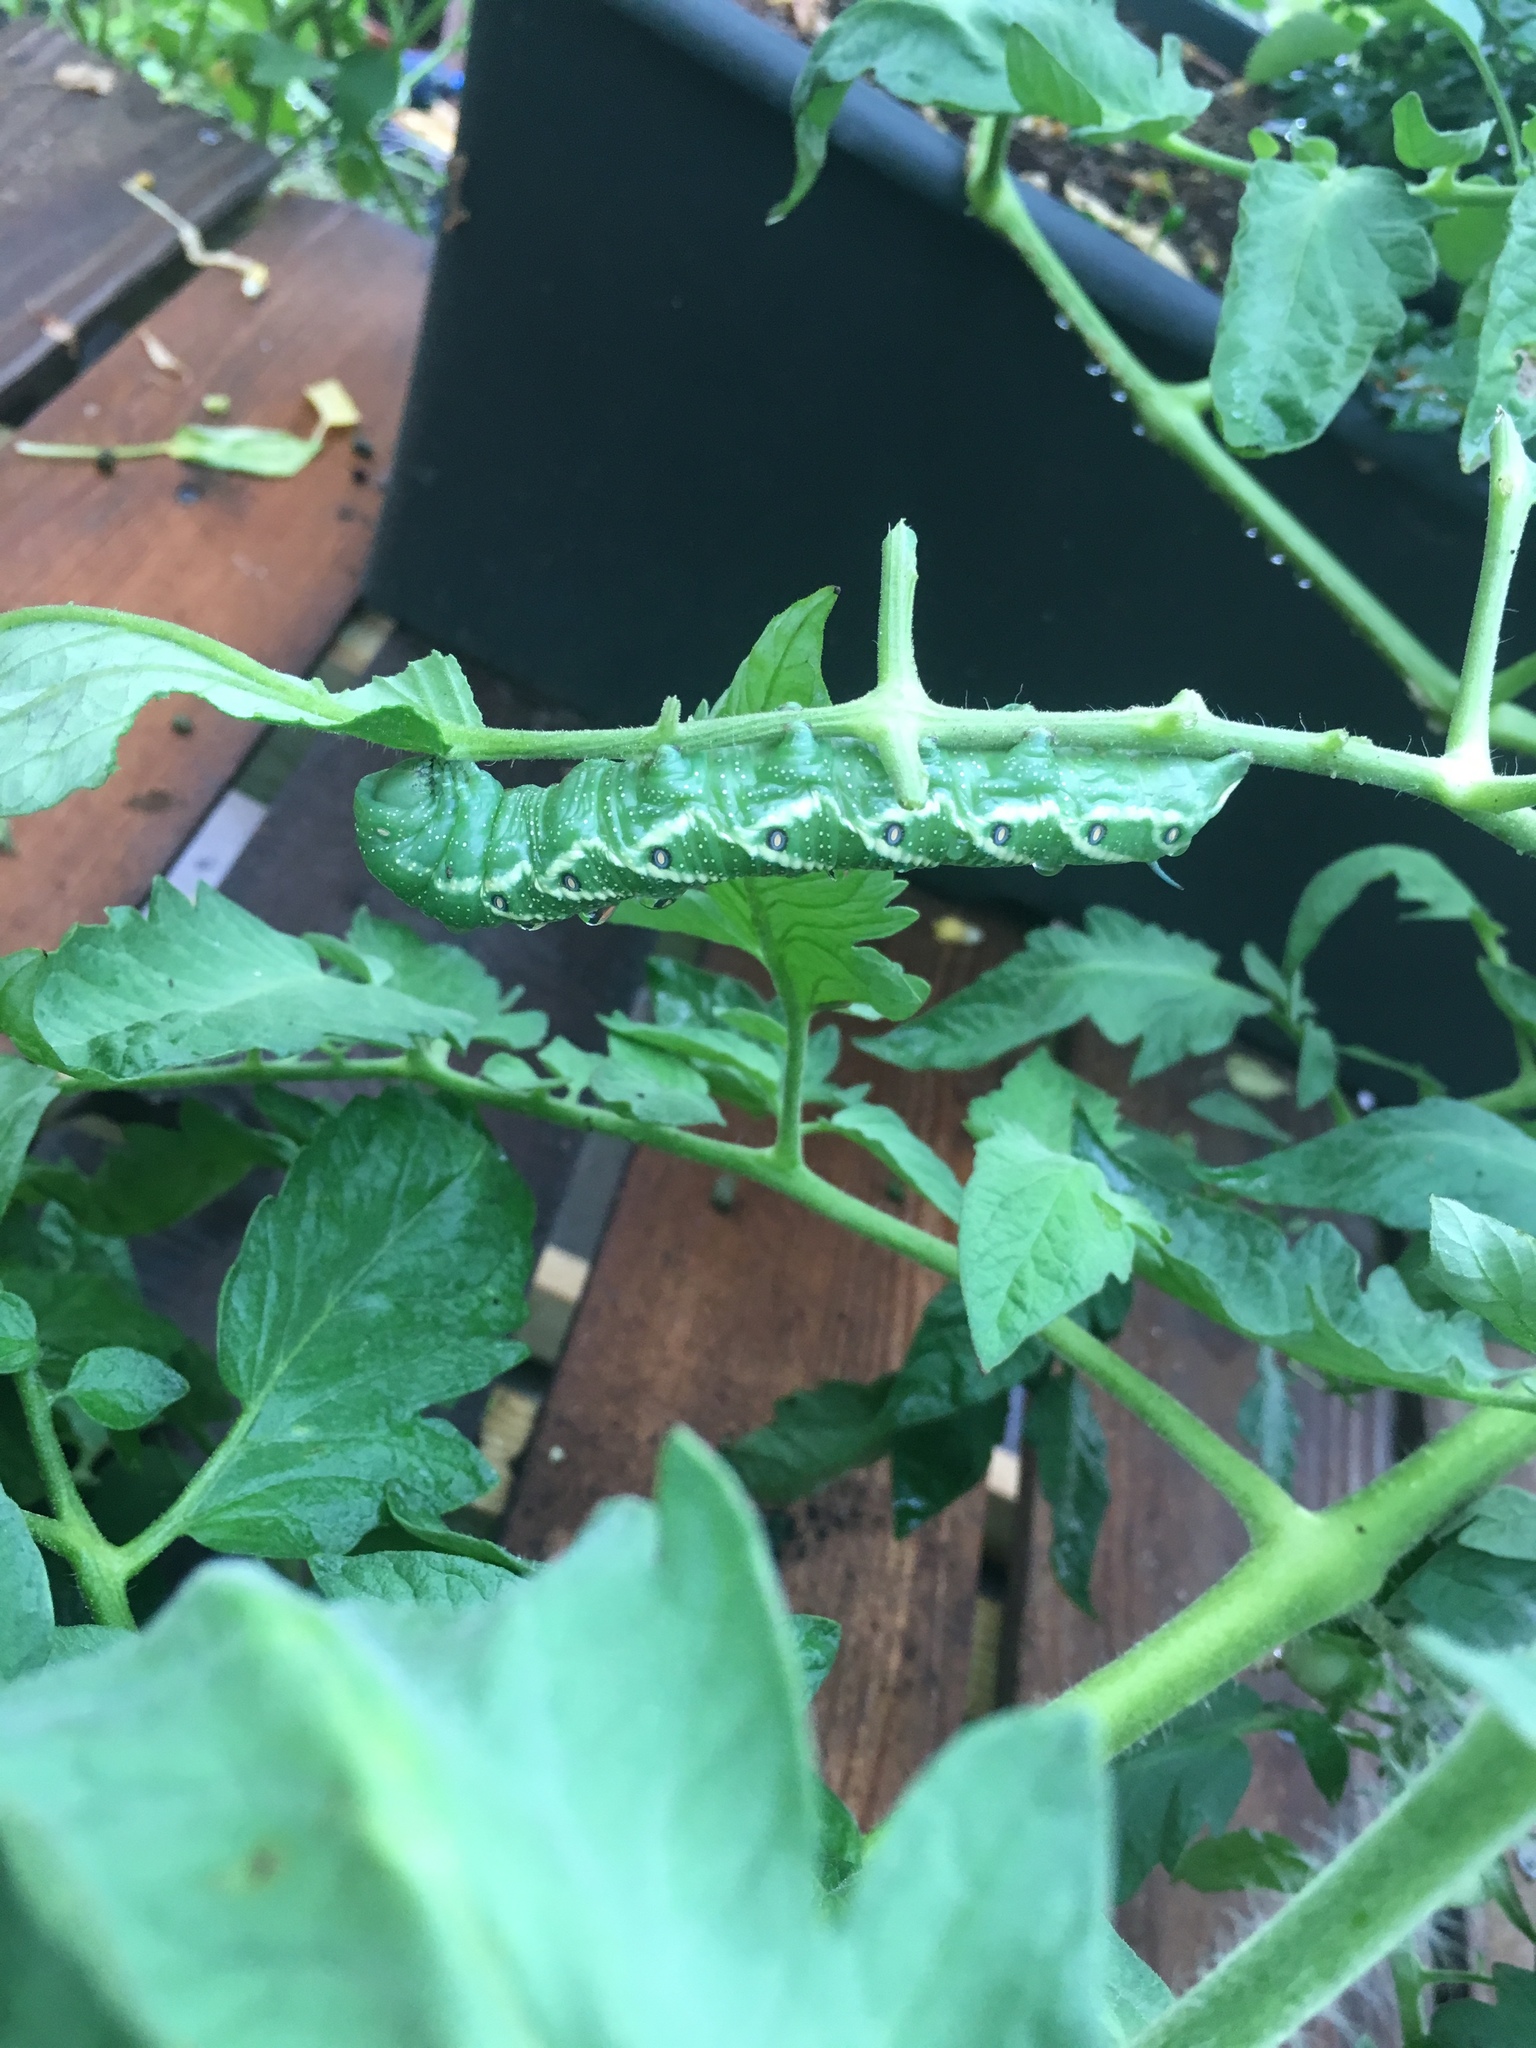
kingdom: Animalia
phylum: Arthropoda
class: Insecta
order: Lepidoptera
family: Sphingidae
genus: Manduca
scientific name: Manduca quinquemaculatus
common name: Five-spotted hawk-moth
